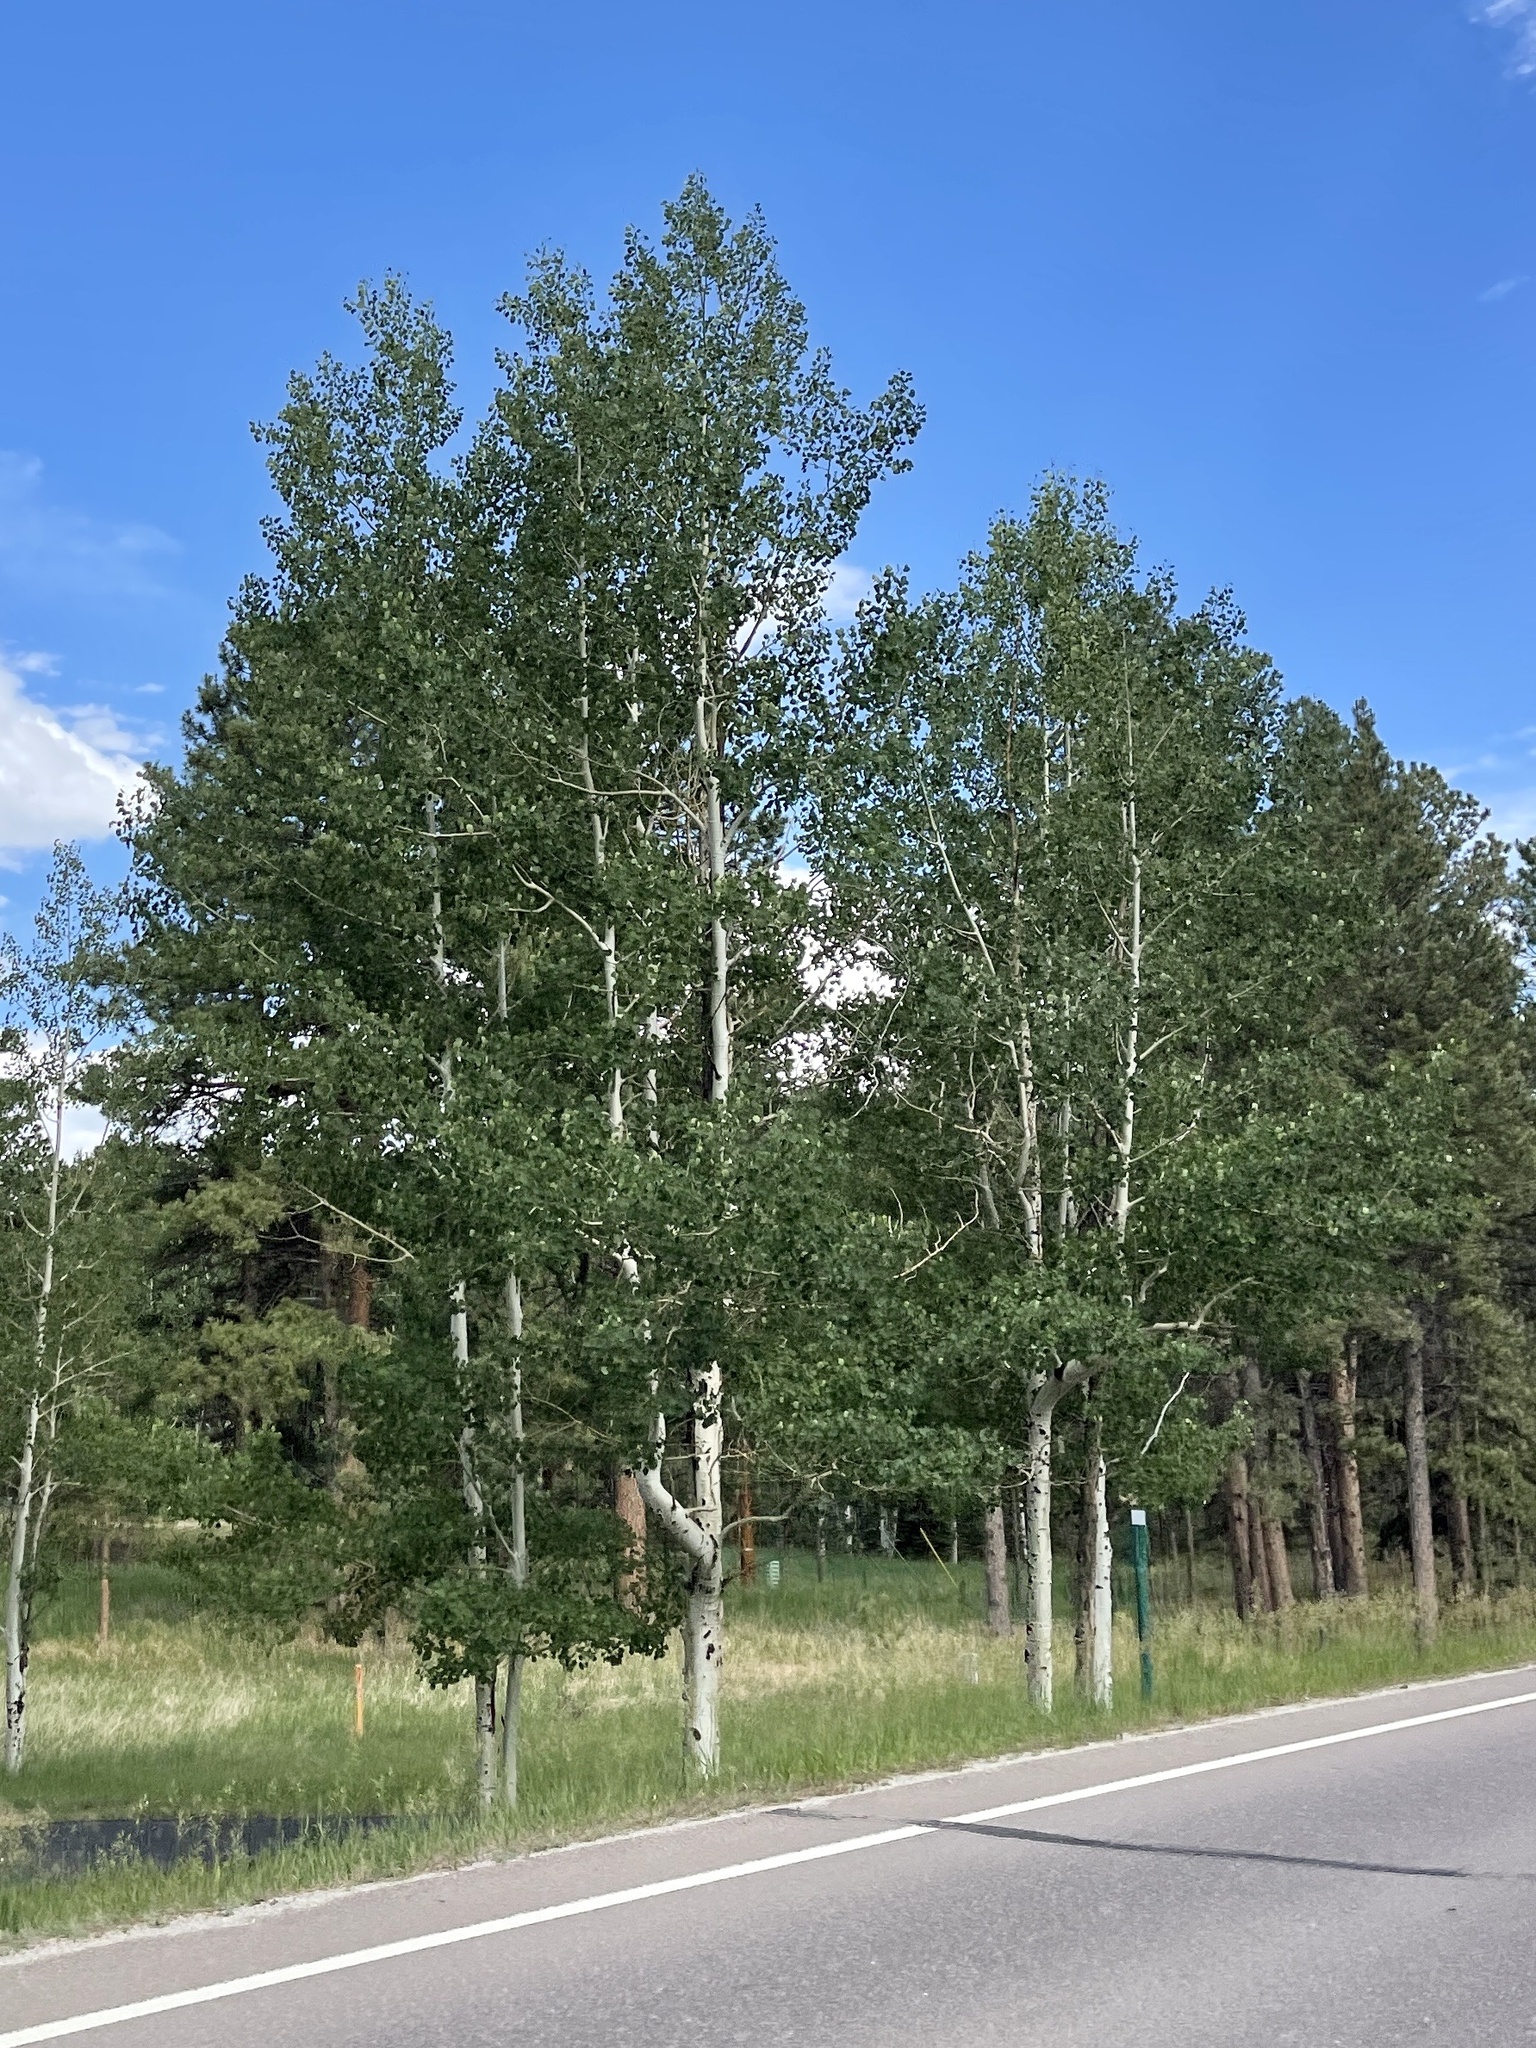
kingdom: Plantae
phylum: Tracheophyta
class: Magnoliopsida
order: Malpighiales
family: Salicaceae
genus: Populus
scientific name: Populus tremuloides
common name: Quaking aspen
